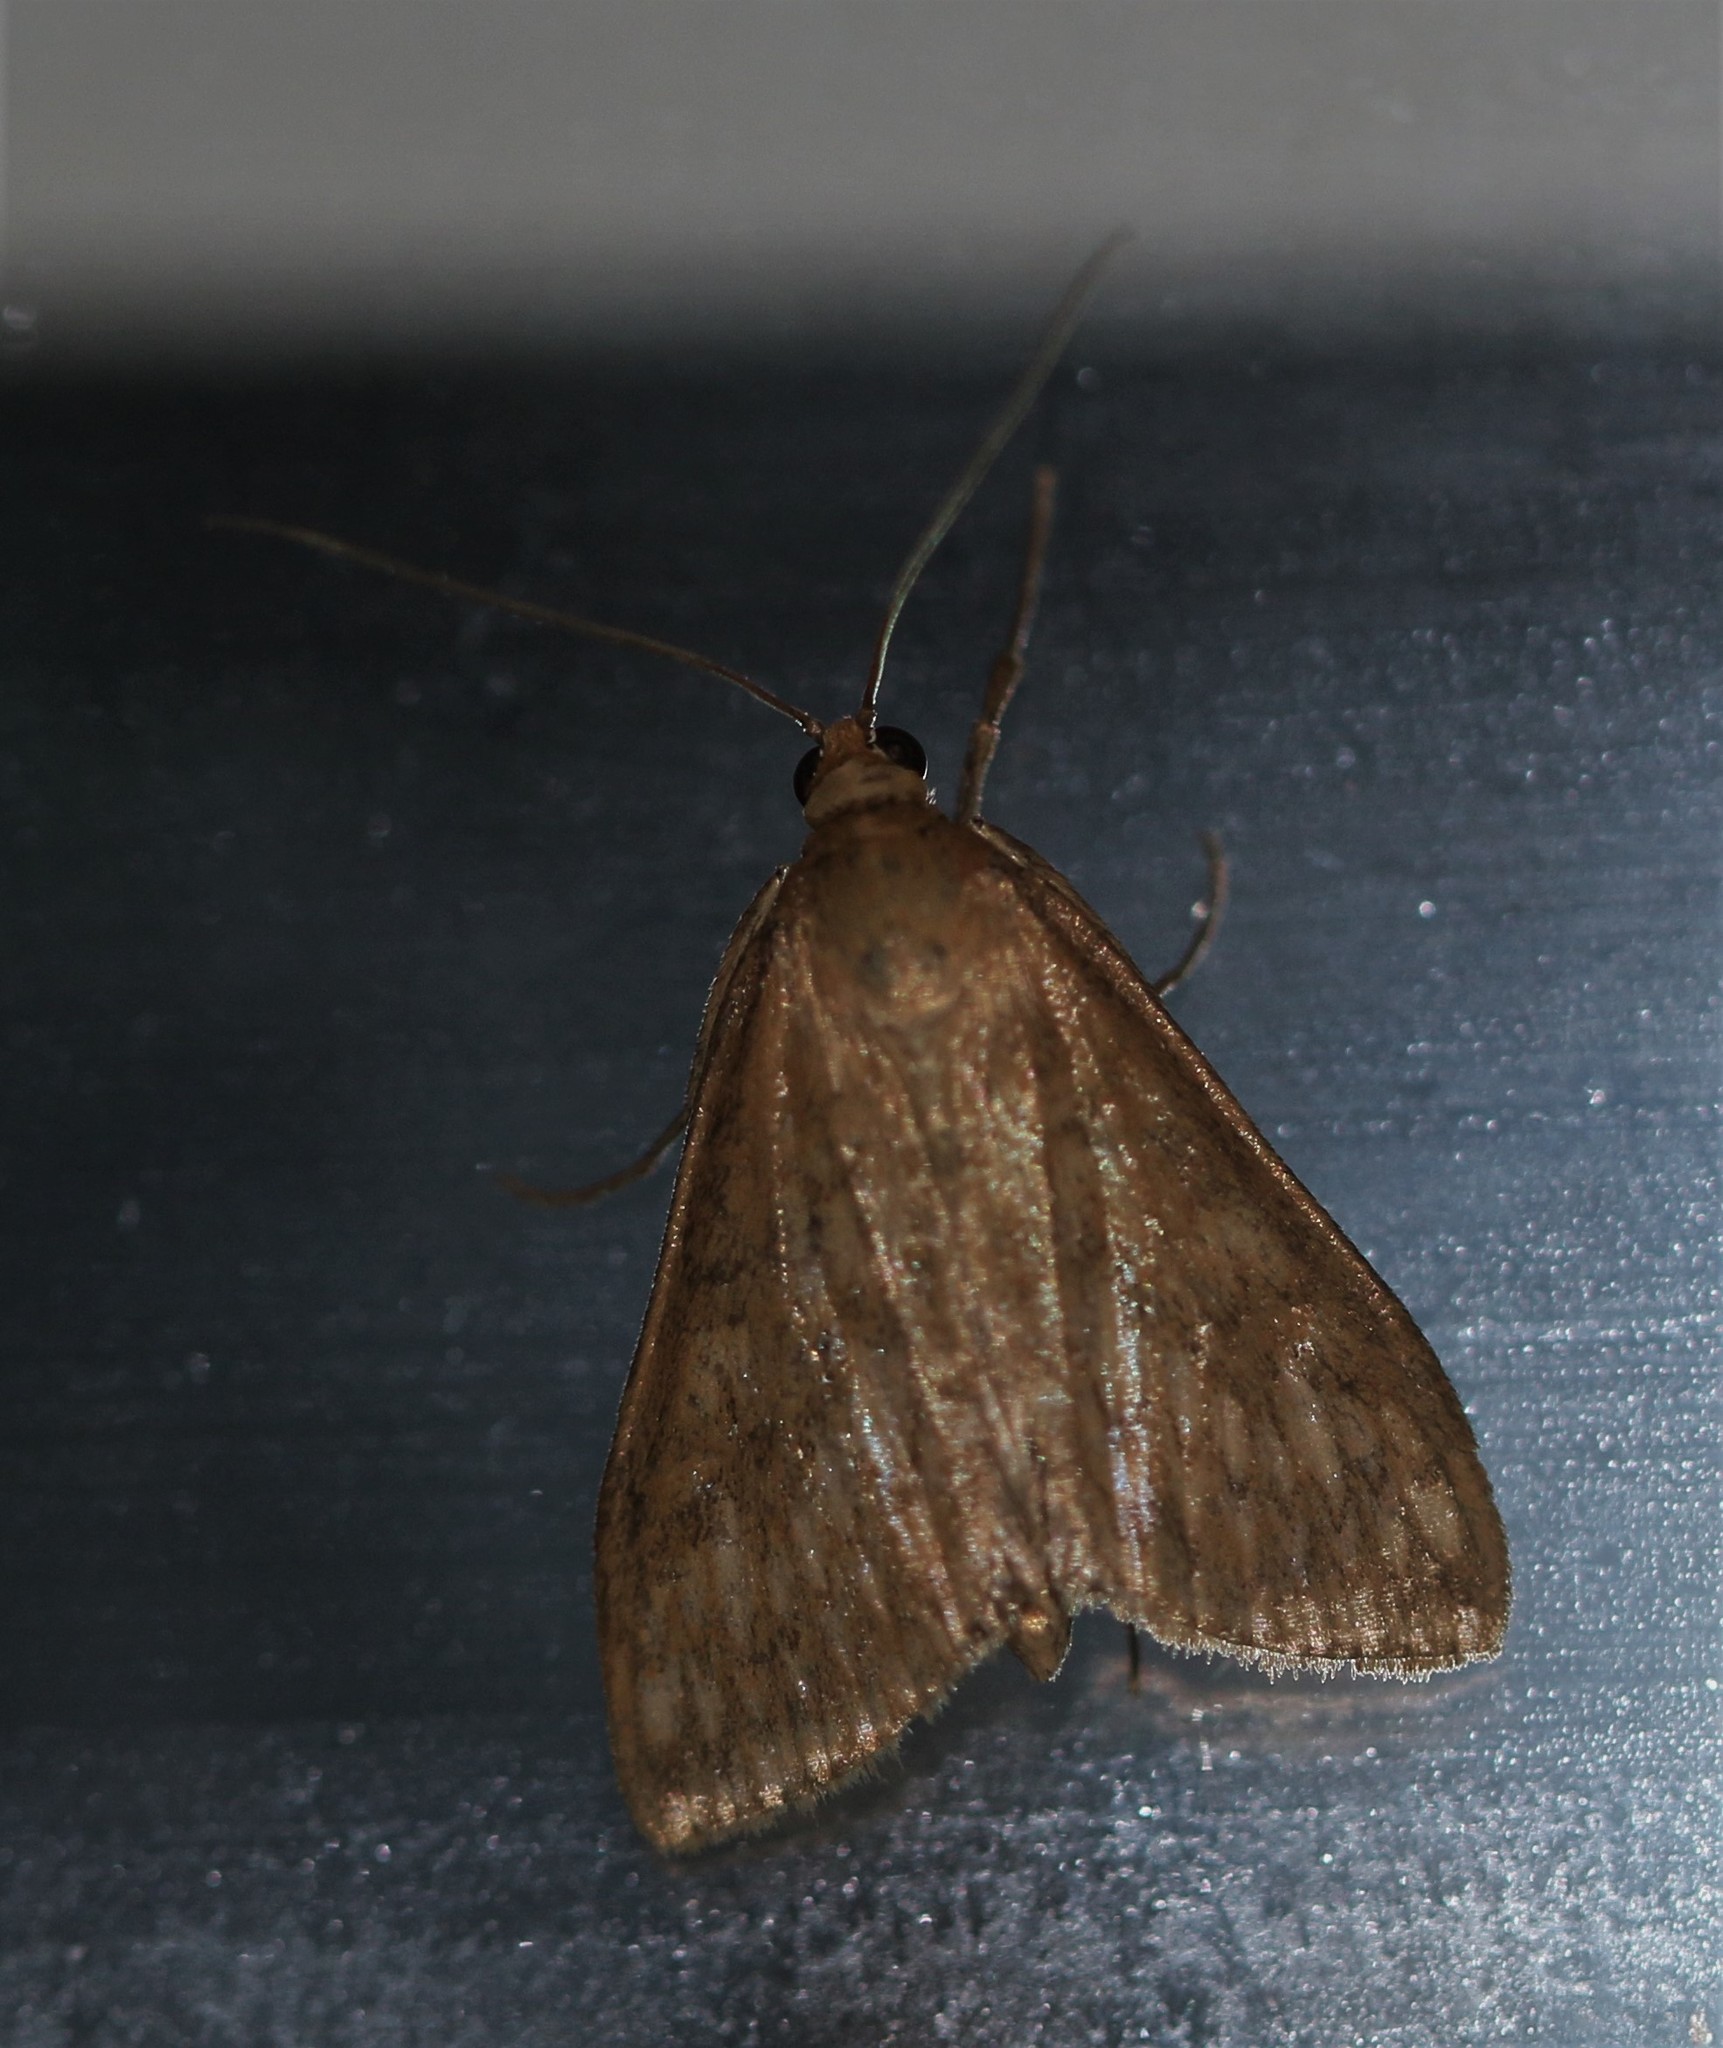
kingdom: Animalia
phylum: Arthropoda
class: Insecta
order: Lepidoptera
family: Crambidae
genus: Sitochroa
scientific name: Sitochroa chortalis
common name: Dimorphic sitochroa moth
